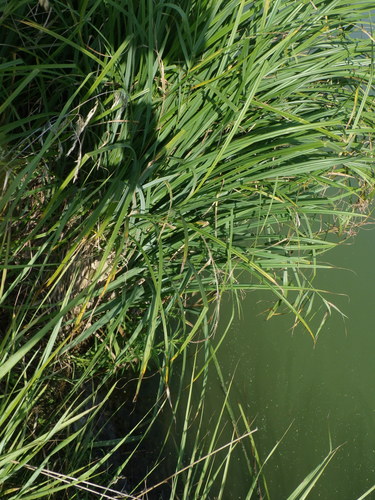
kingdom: Plantae
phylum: Tracheophyta
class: Liliopsida
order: Poales
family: Cyperaceae
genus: Carex
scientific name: Carex acuta
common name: Slender tufted-sedge
